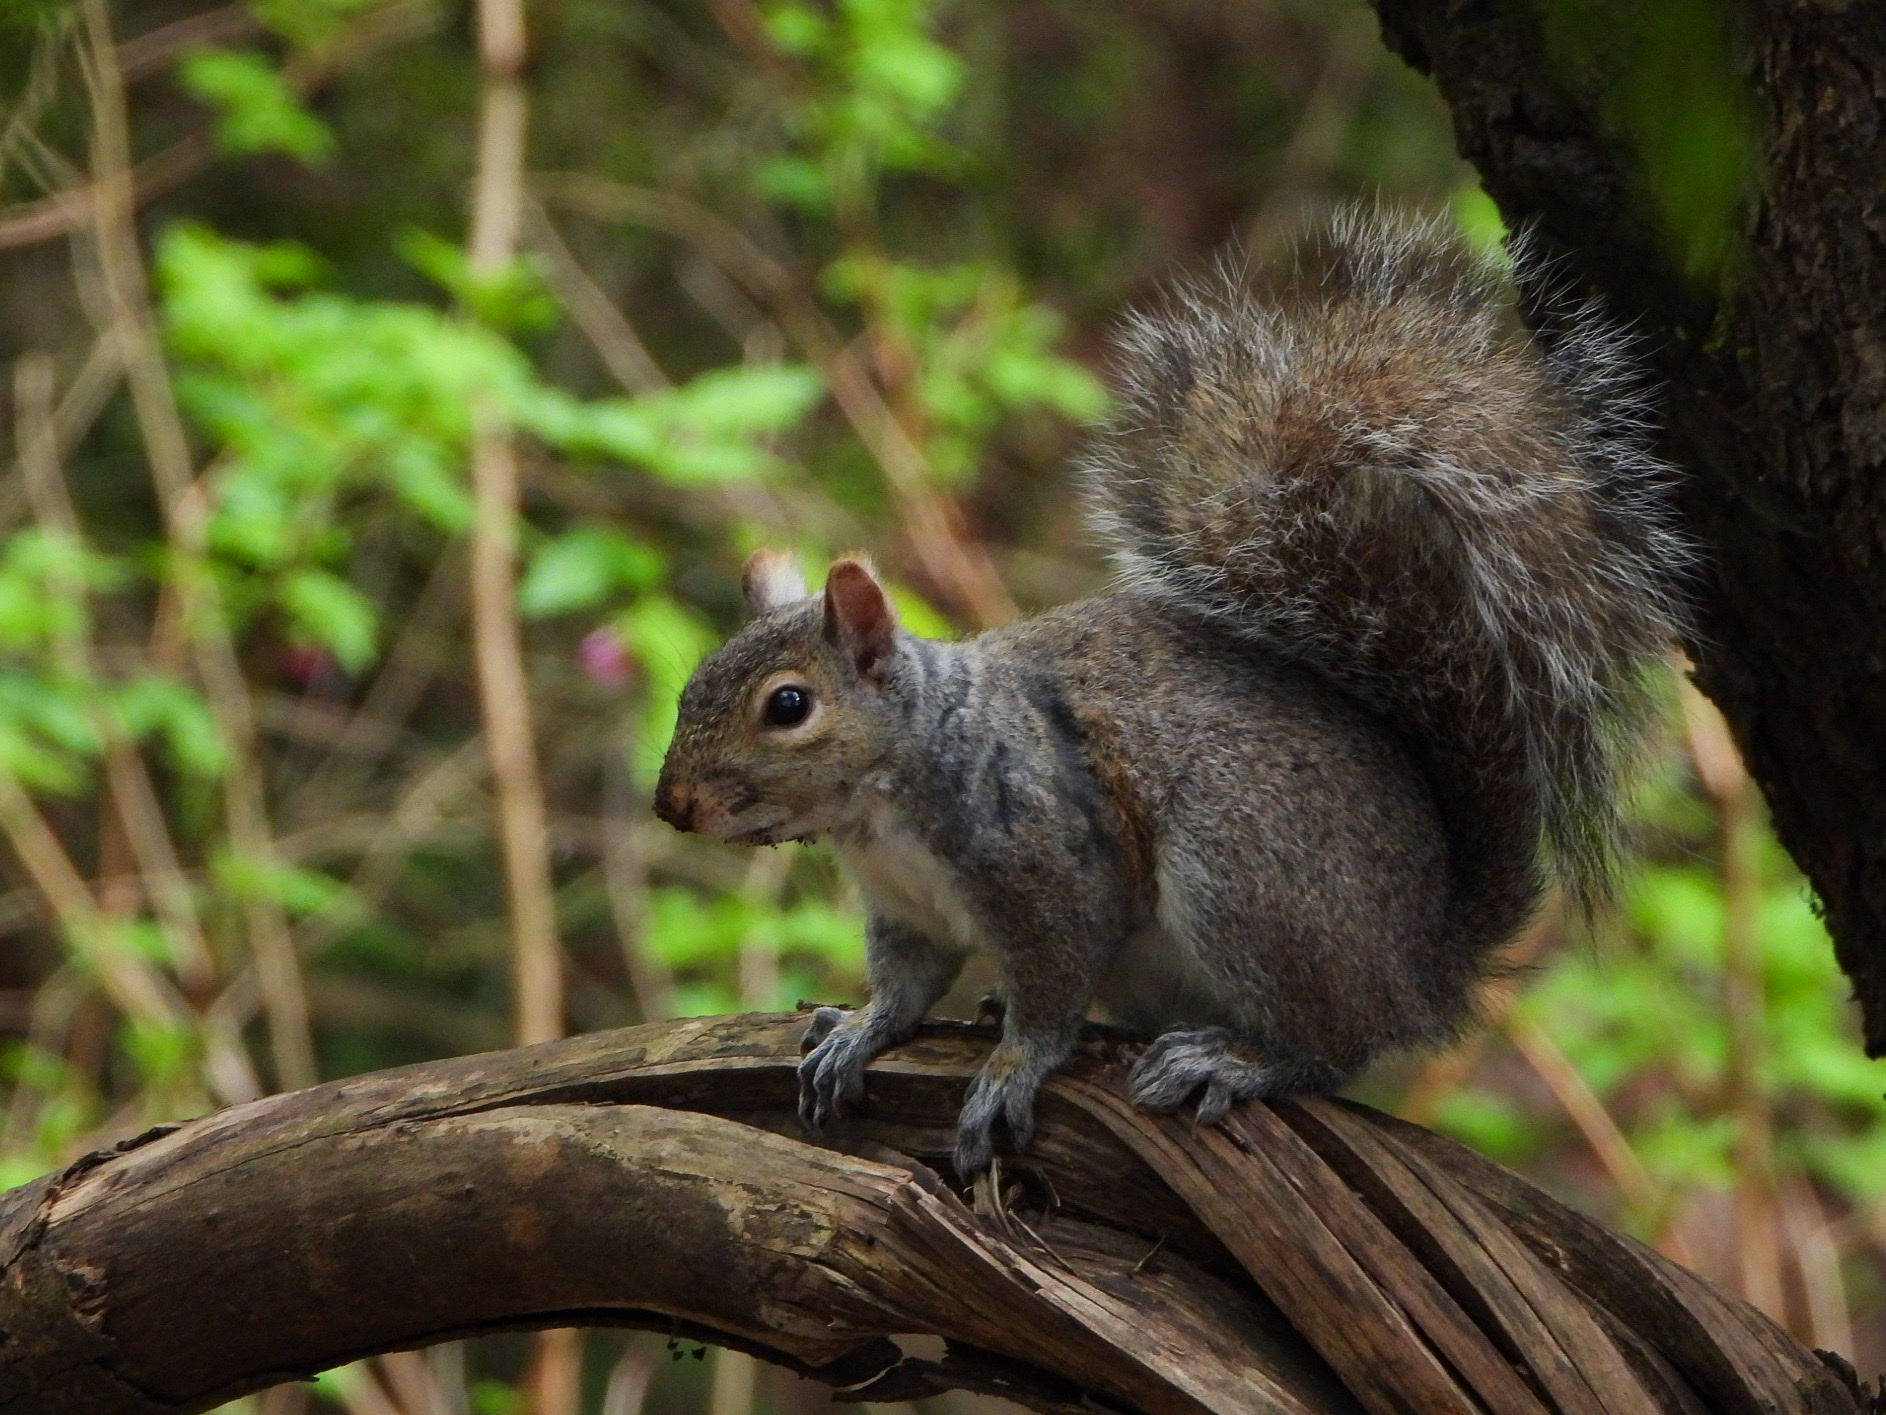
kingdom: Animalia
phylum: Chordata
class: Mammalia
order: Rodentia
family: Sciuridae
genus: Sciurus
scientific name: Sciurus carolinensis
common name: Eastern gray squirrel
